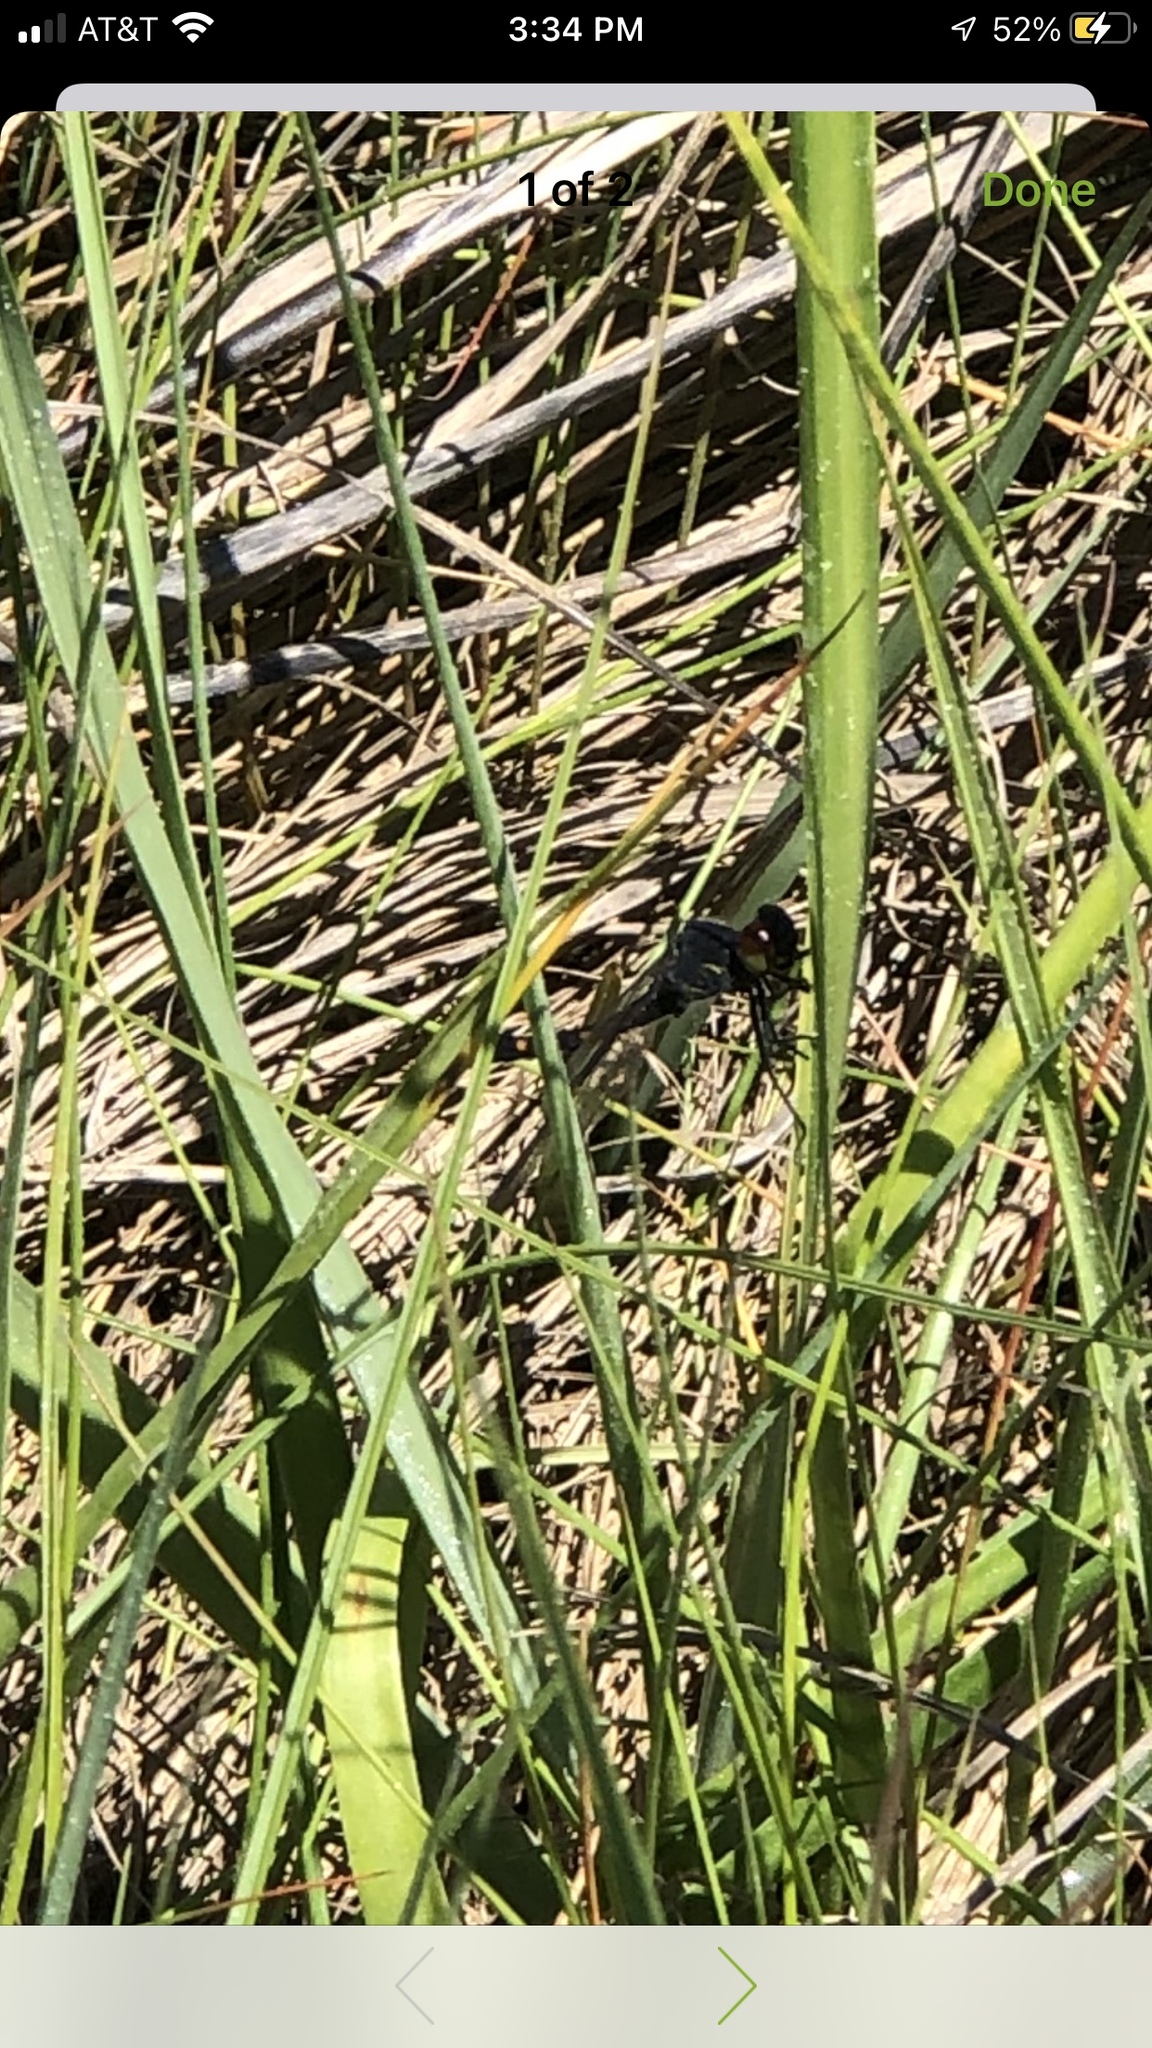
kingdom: Animalia
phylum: Arthropoda
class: Insecta
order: Odonata
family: Libellulidae
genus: Erythrodiplax
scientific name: Erythrodiplax berenice
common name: Seaside dragonlet
